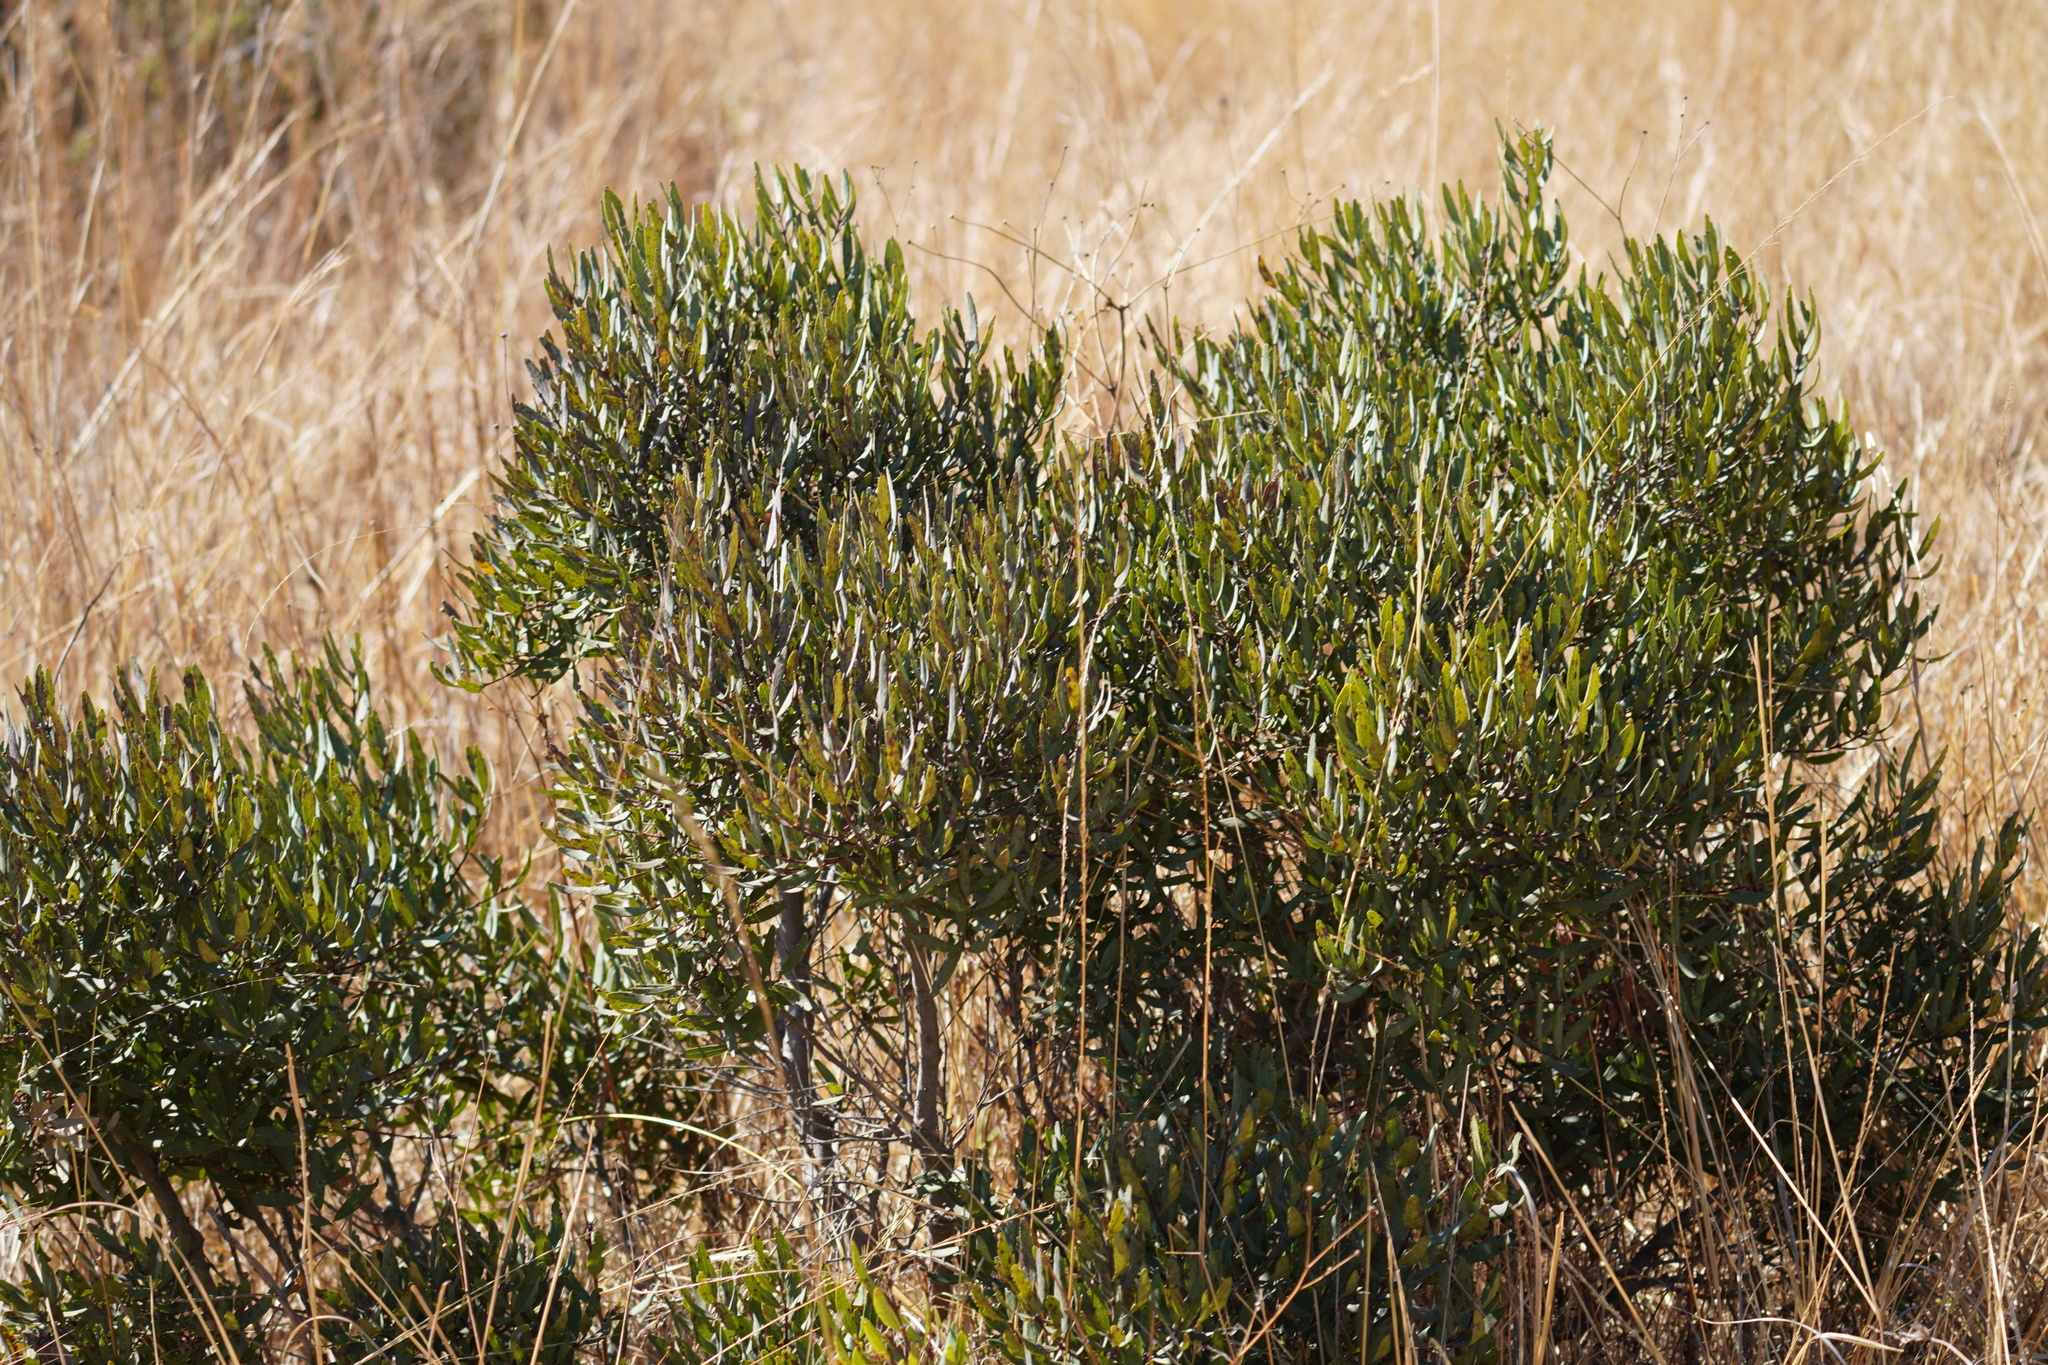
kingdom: Plantae
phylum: Tracheophyta
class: Magnoliopsida
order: Ericales
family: Ebenaceae
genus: Euclea
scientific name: Euclea crispa
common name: Blue guarri
